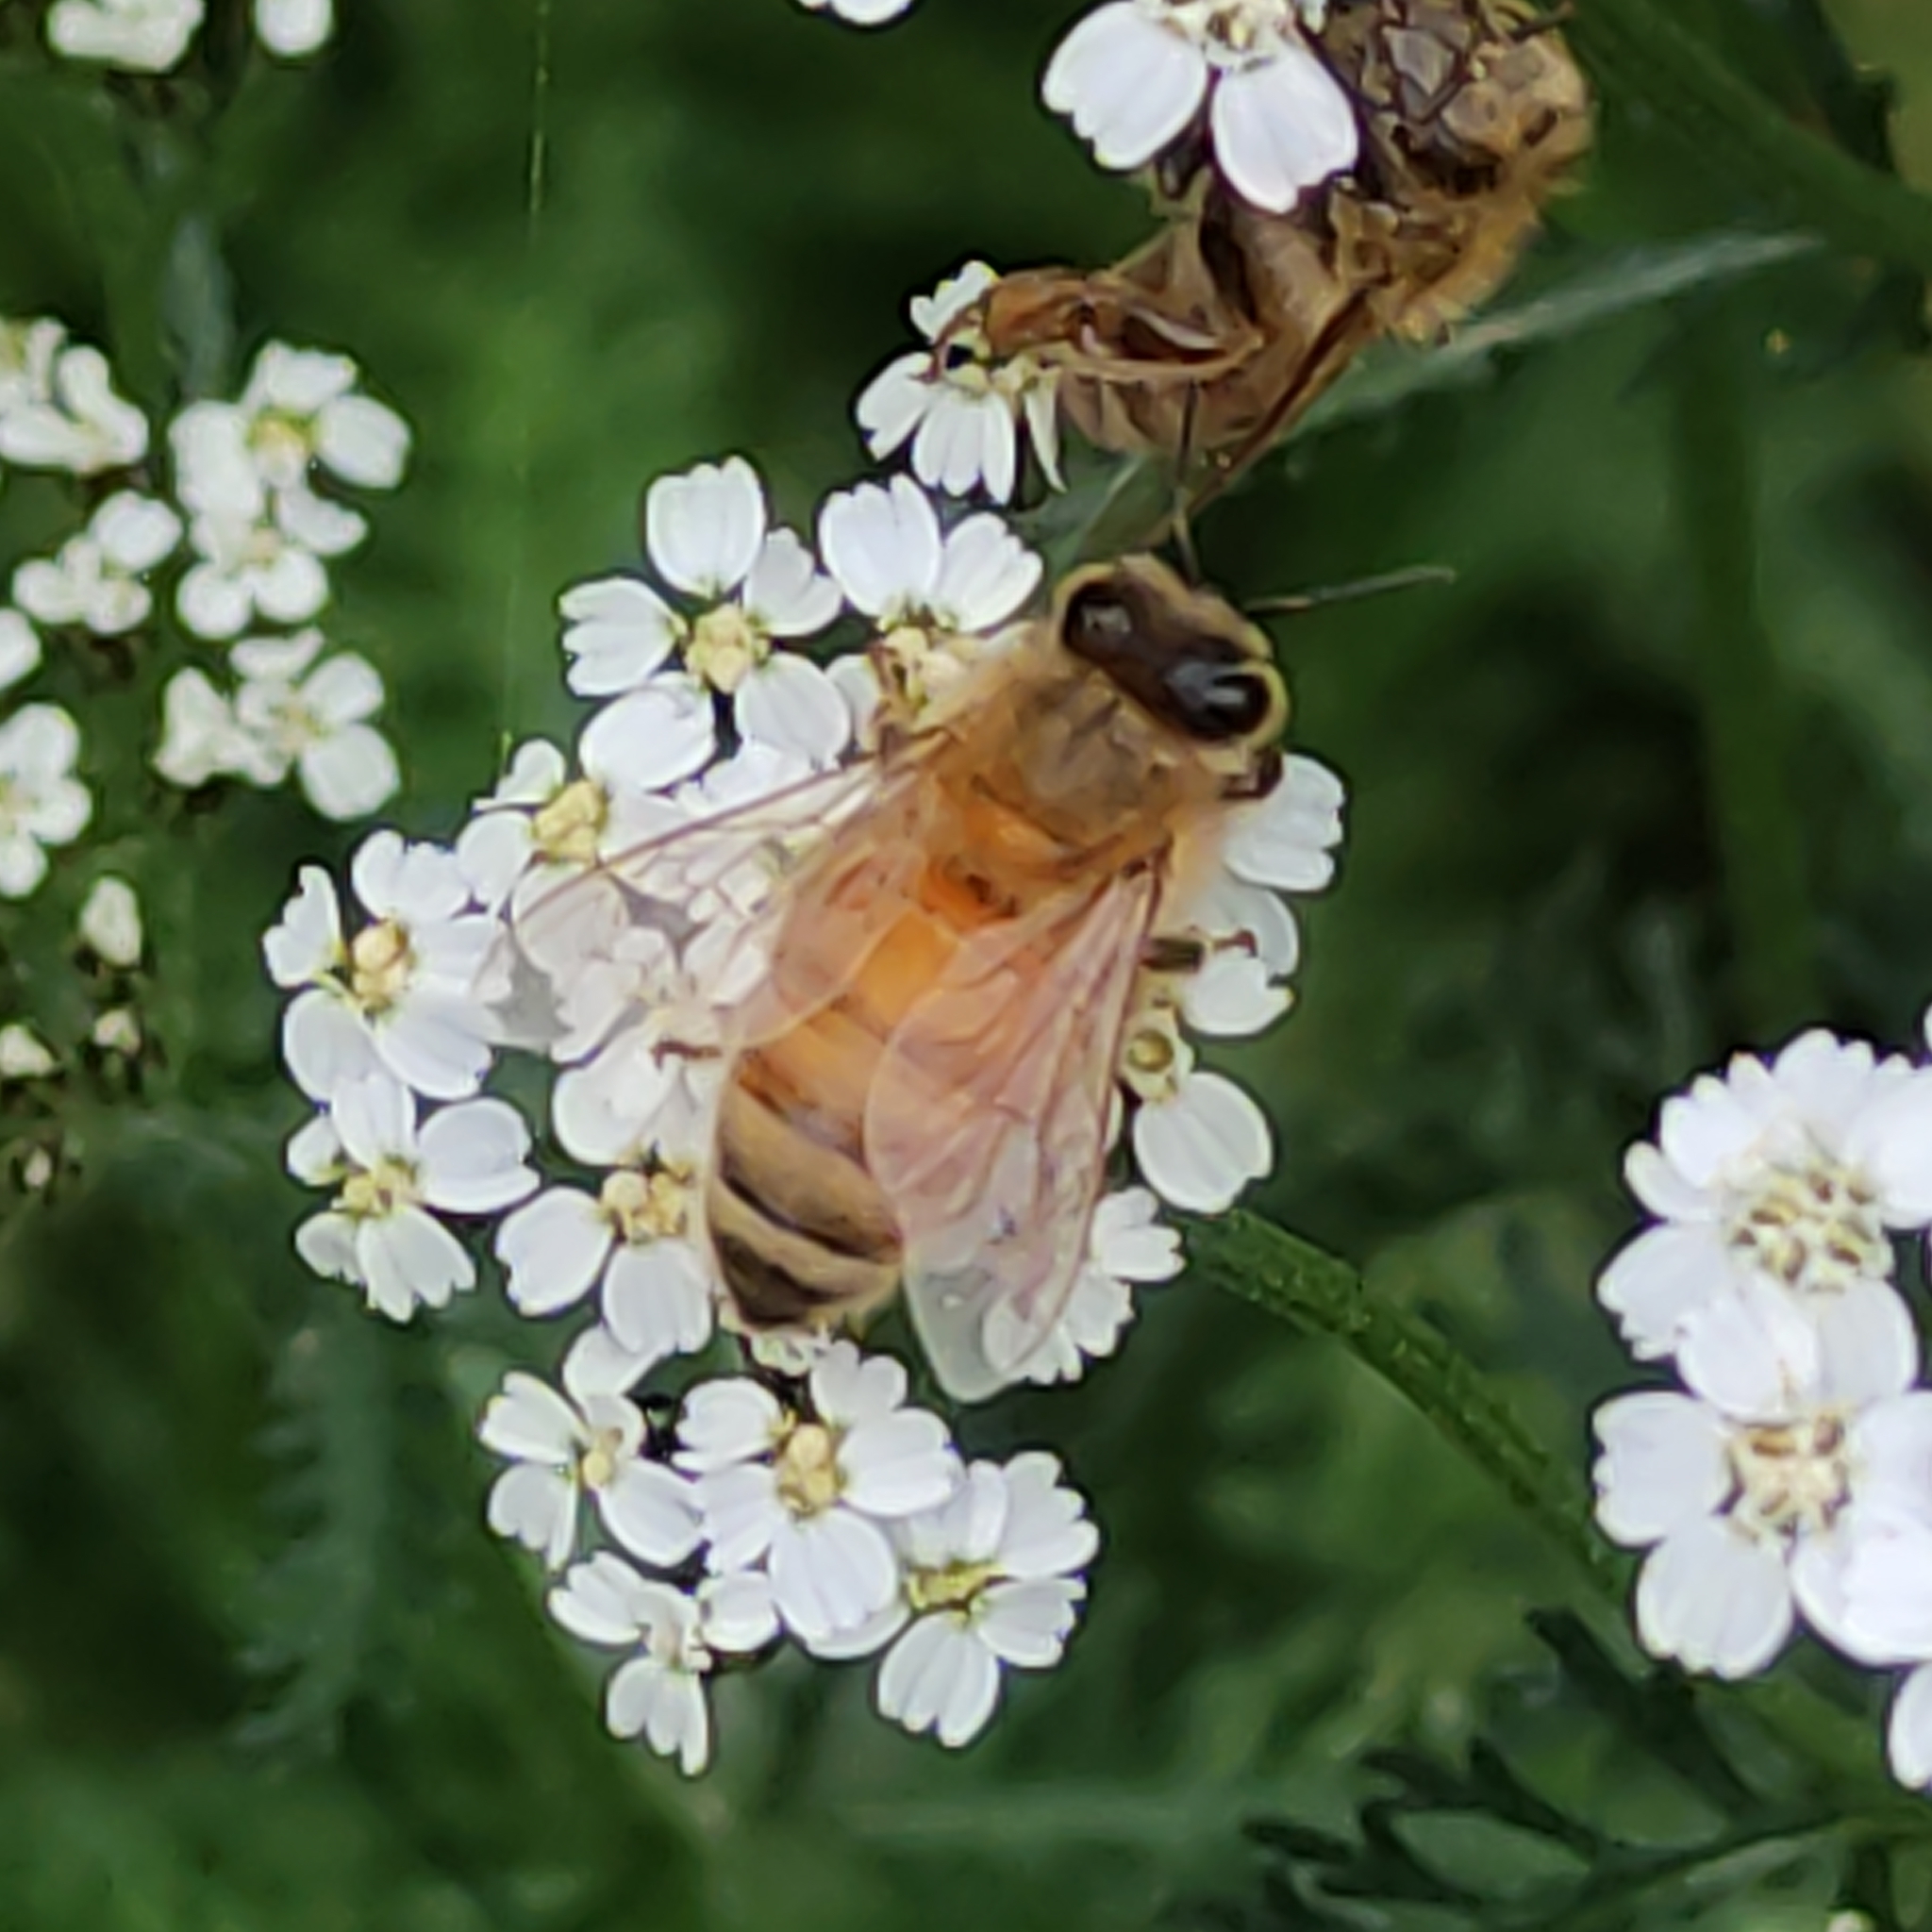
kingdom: Animalia
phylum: Arthropoda
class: Insecta
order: Hymenoptera
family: Apidae
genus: Apis
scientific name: Apis mellifera
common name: Honey bee
